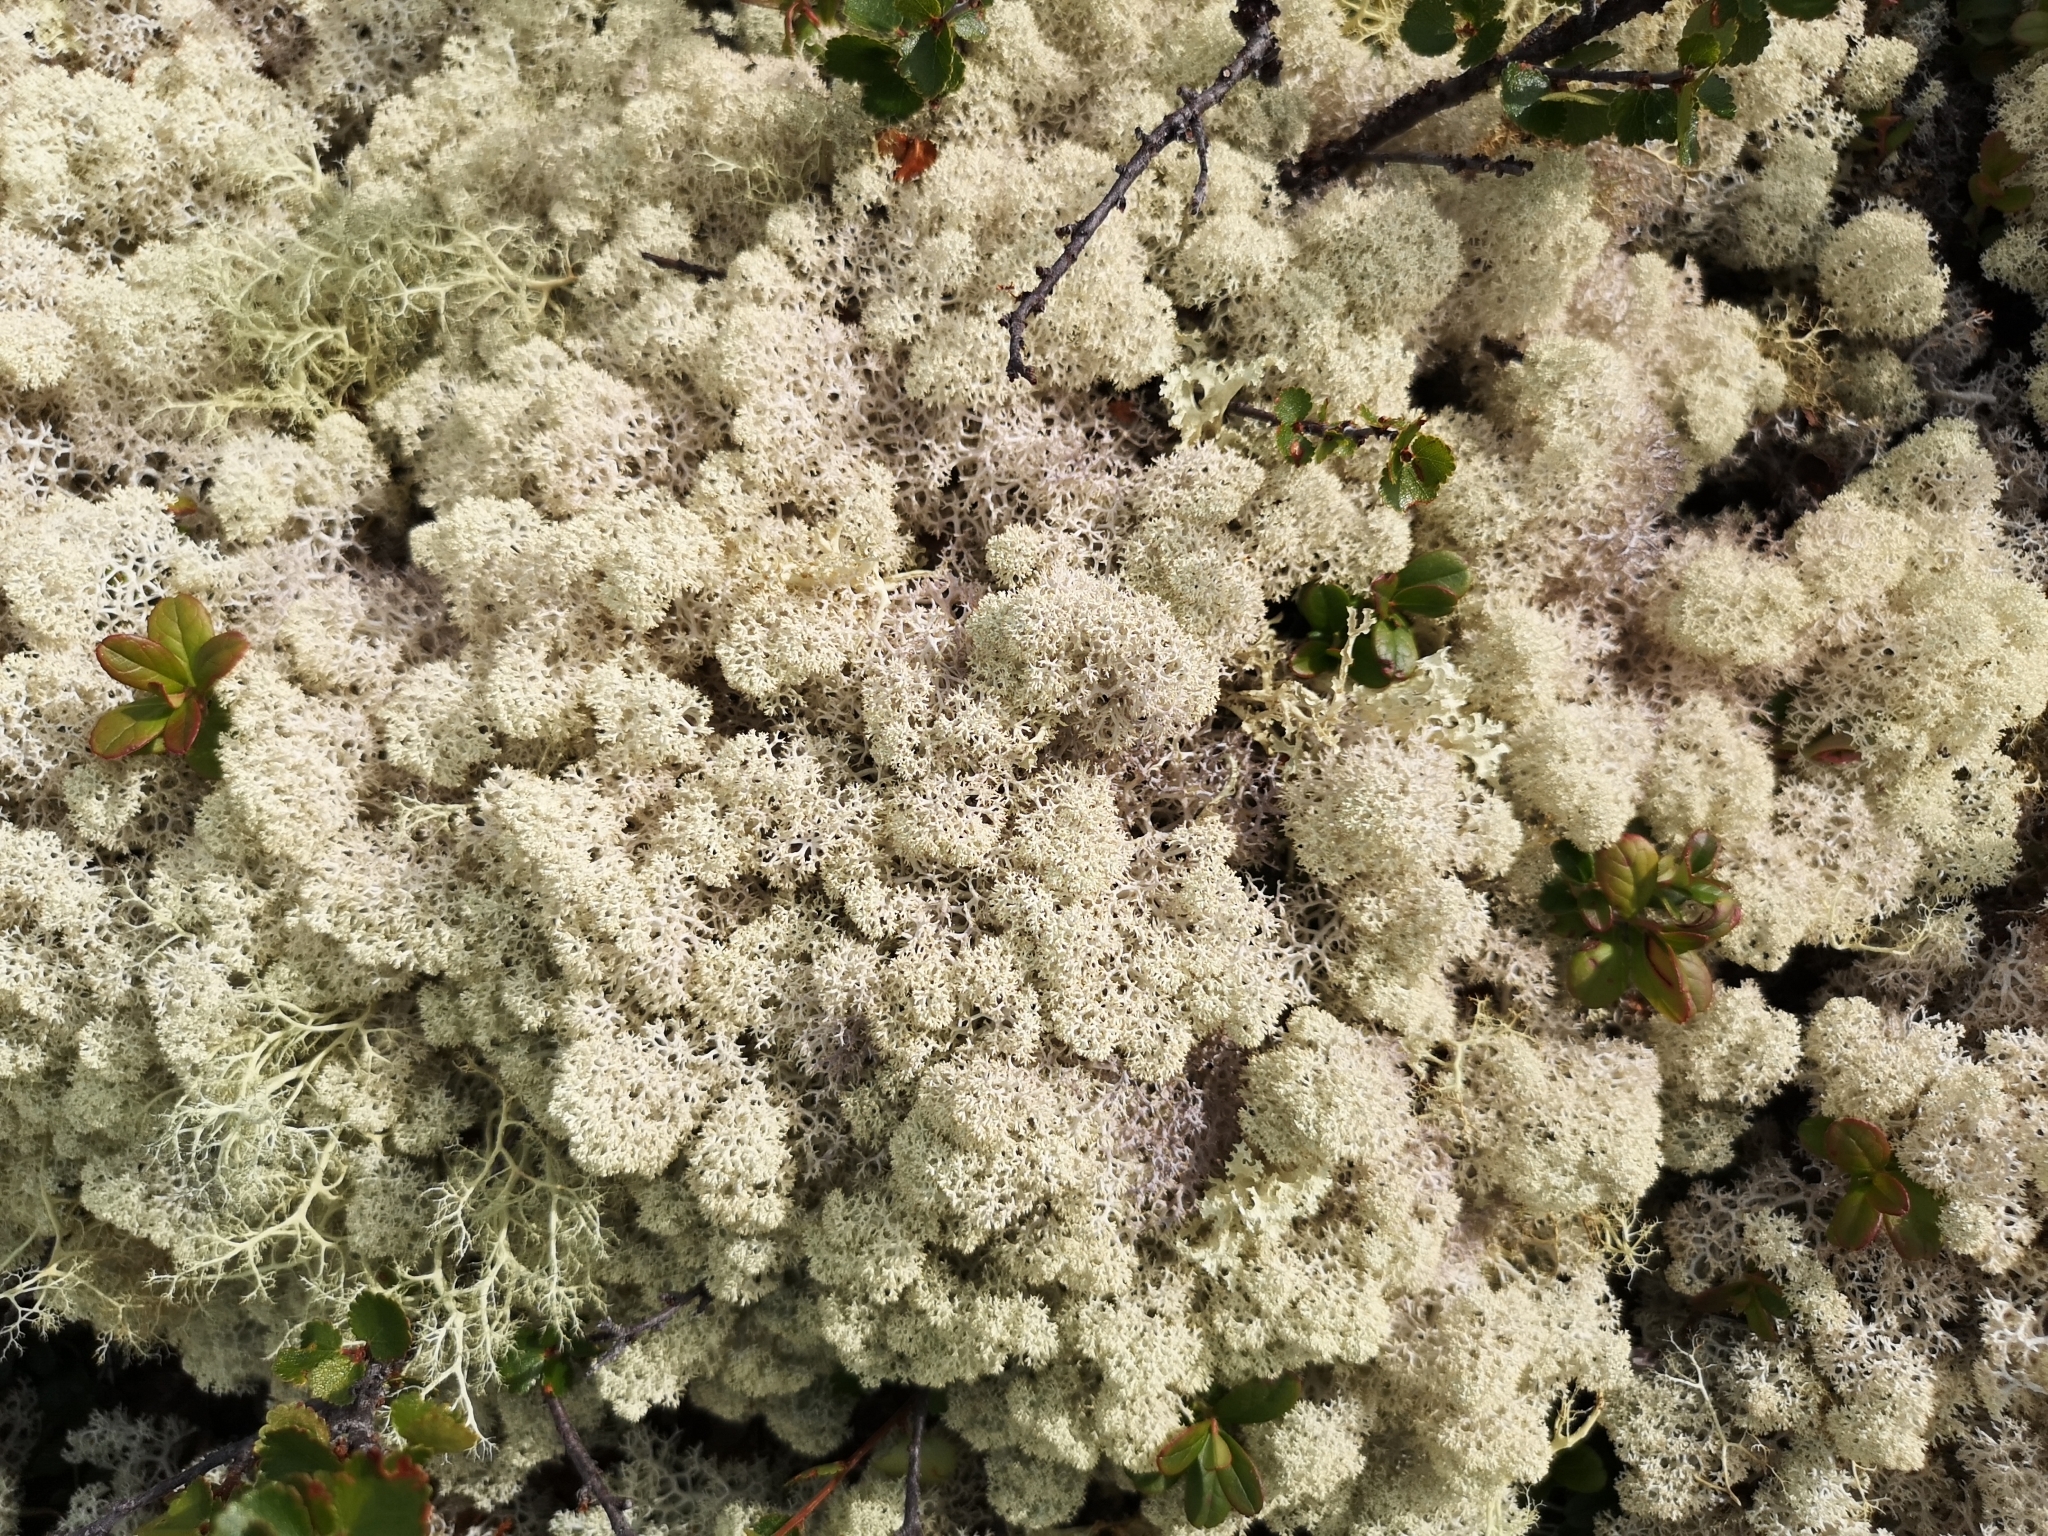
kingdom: Fungi
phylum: Ascomycota
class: Lecanoromycetes
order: Lecanorales
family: Cladoniaceae
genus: Cladonia
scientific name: Cladonia stellaris
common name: Star-tipped reindeer lichen
